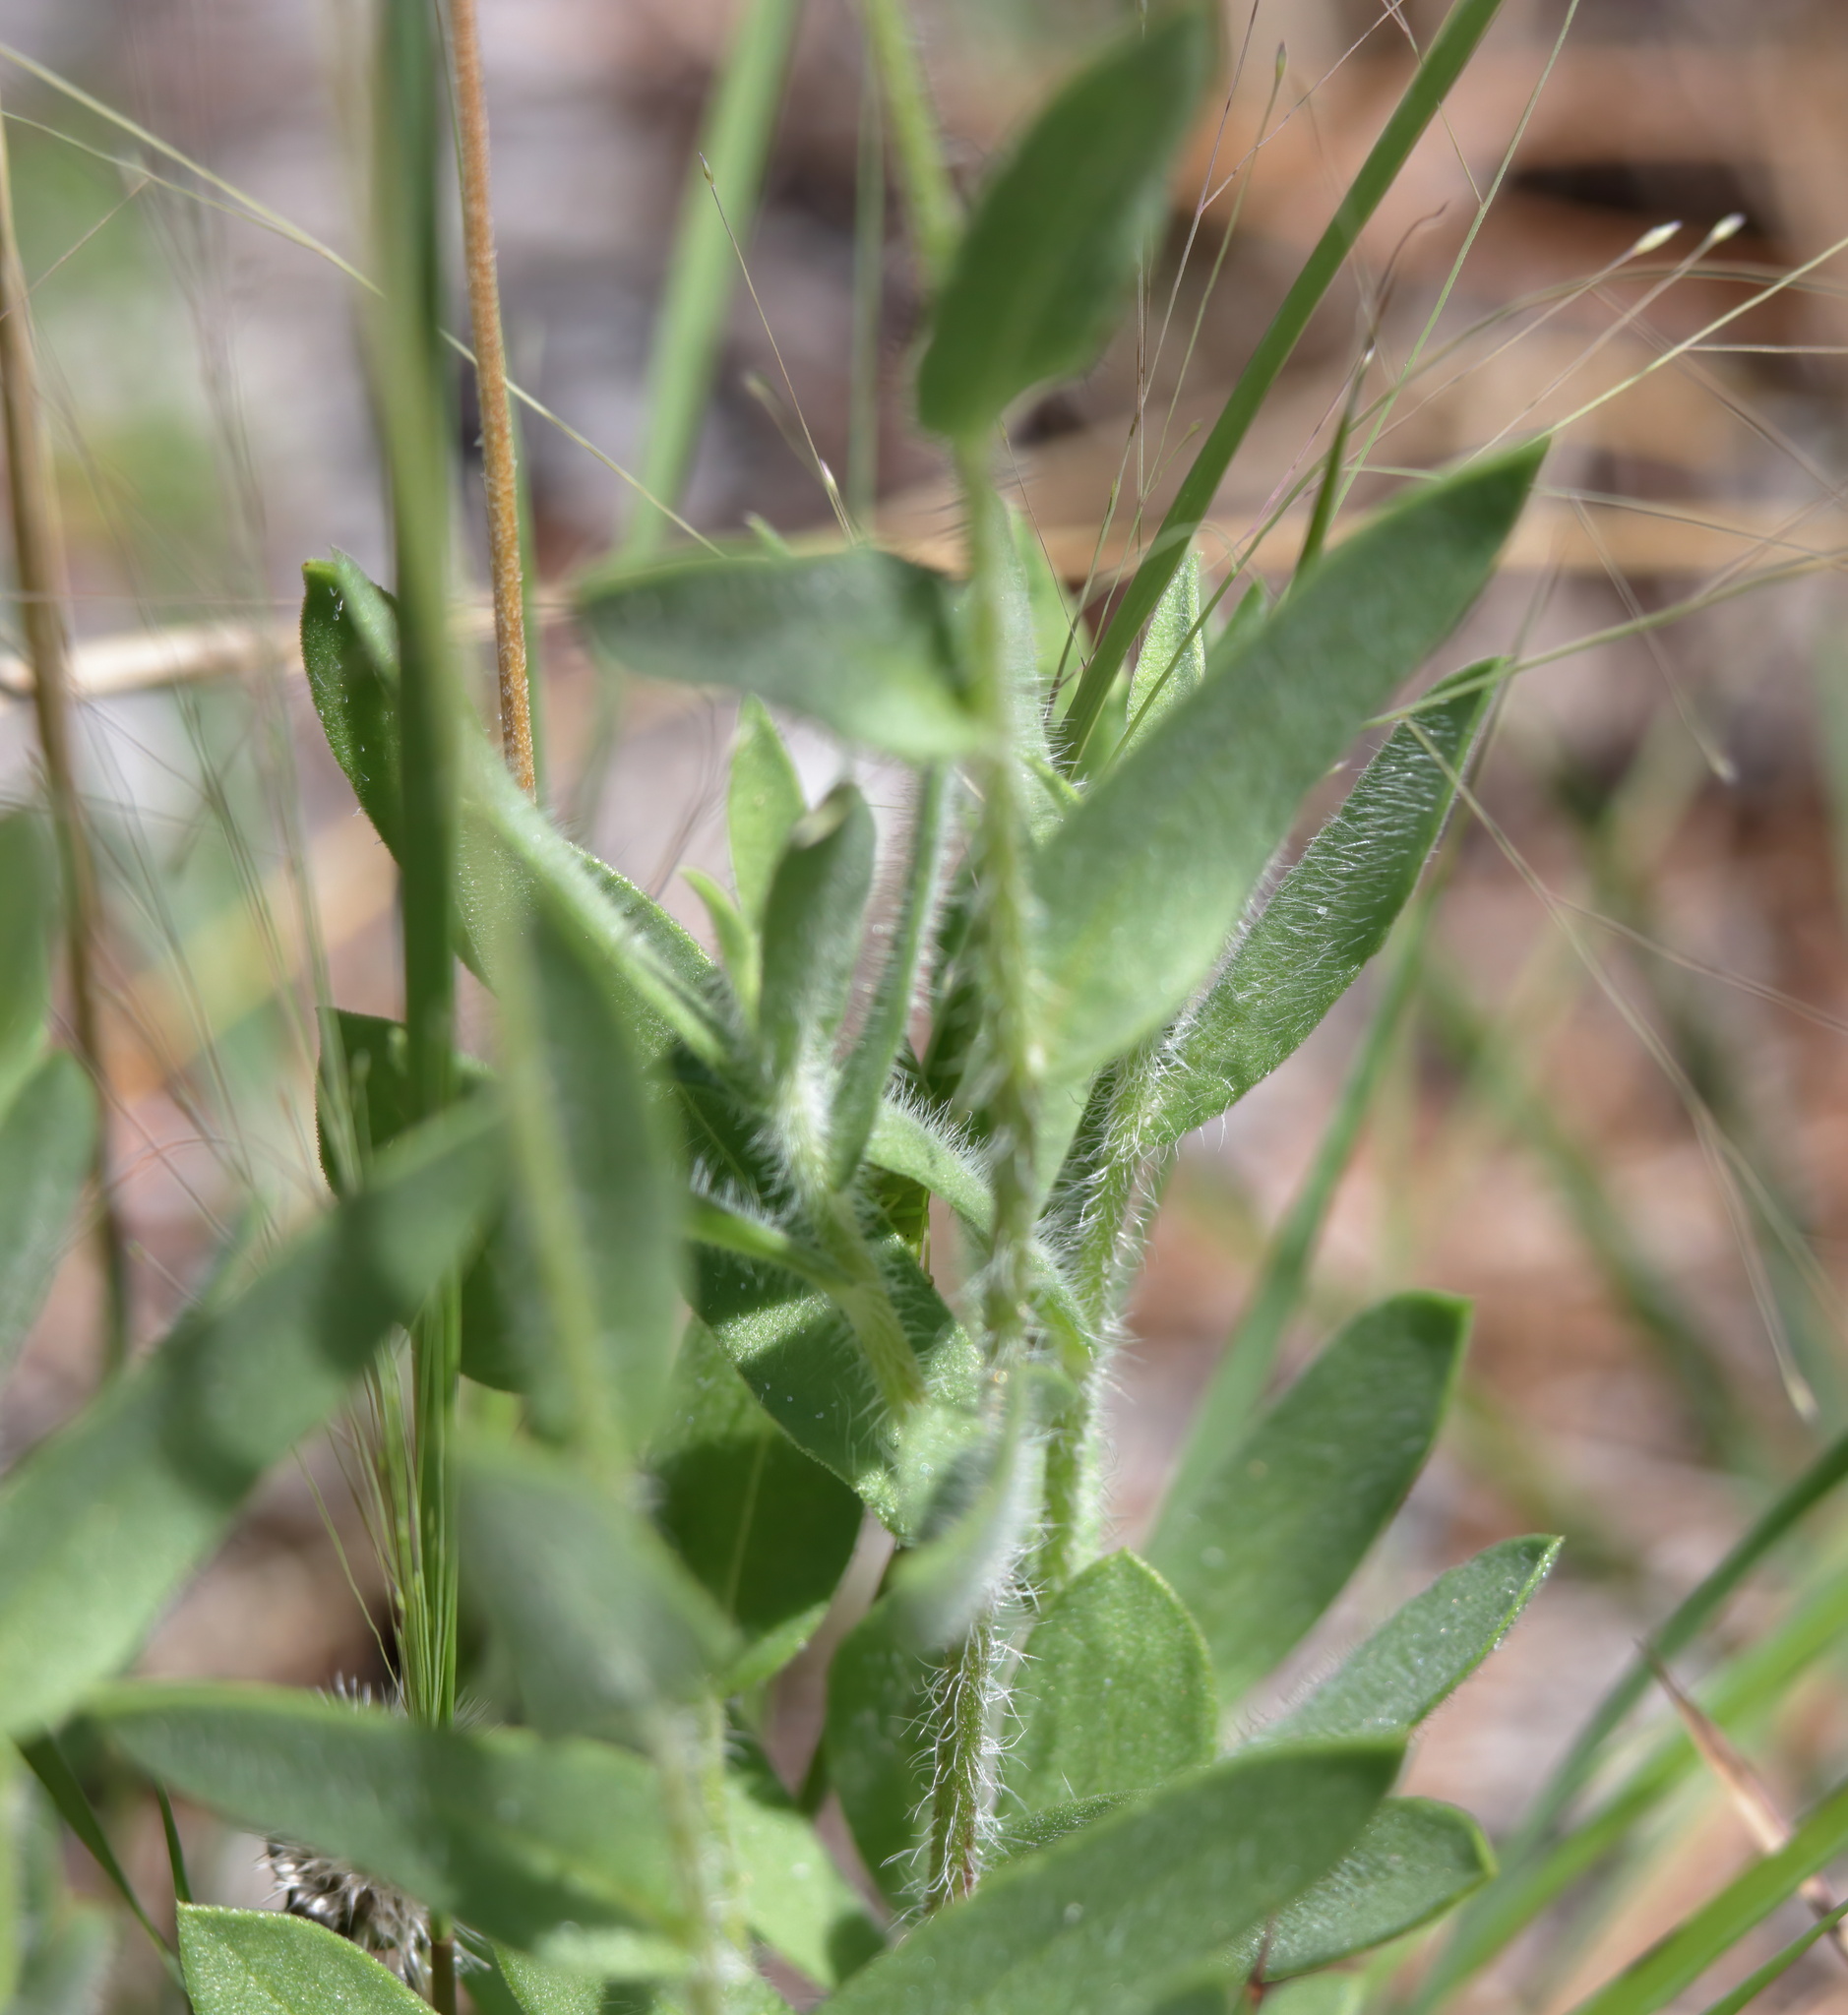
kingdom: Plantae
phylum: Tracheophyta
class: Magnoliopsida
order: Asterales
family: Asteraceae
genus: Gaillardia
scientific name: Gaillardia pulchella
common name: Firewheel
